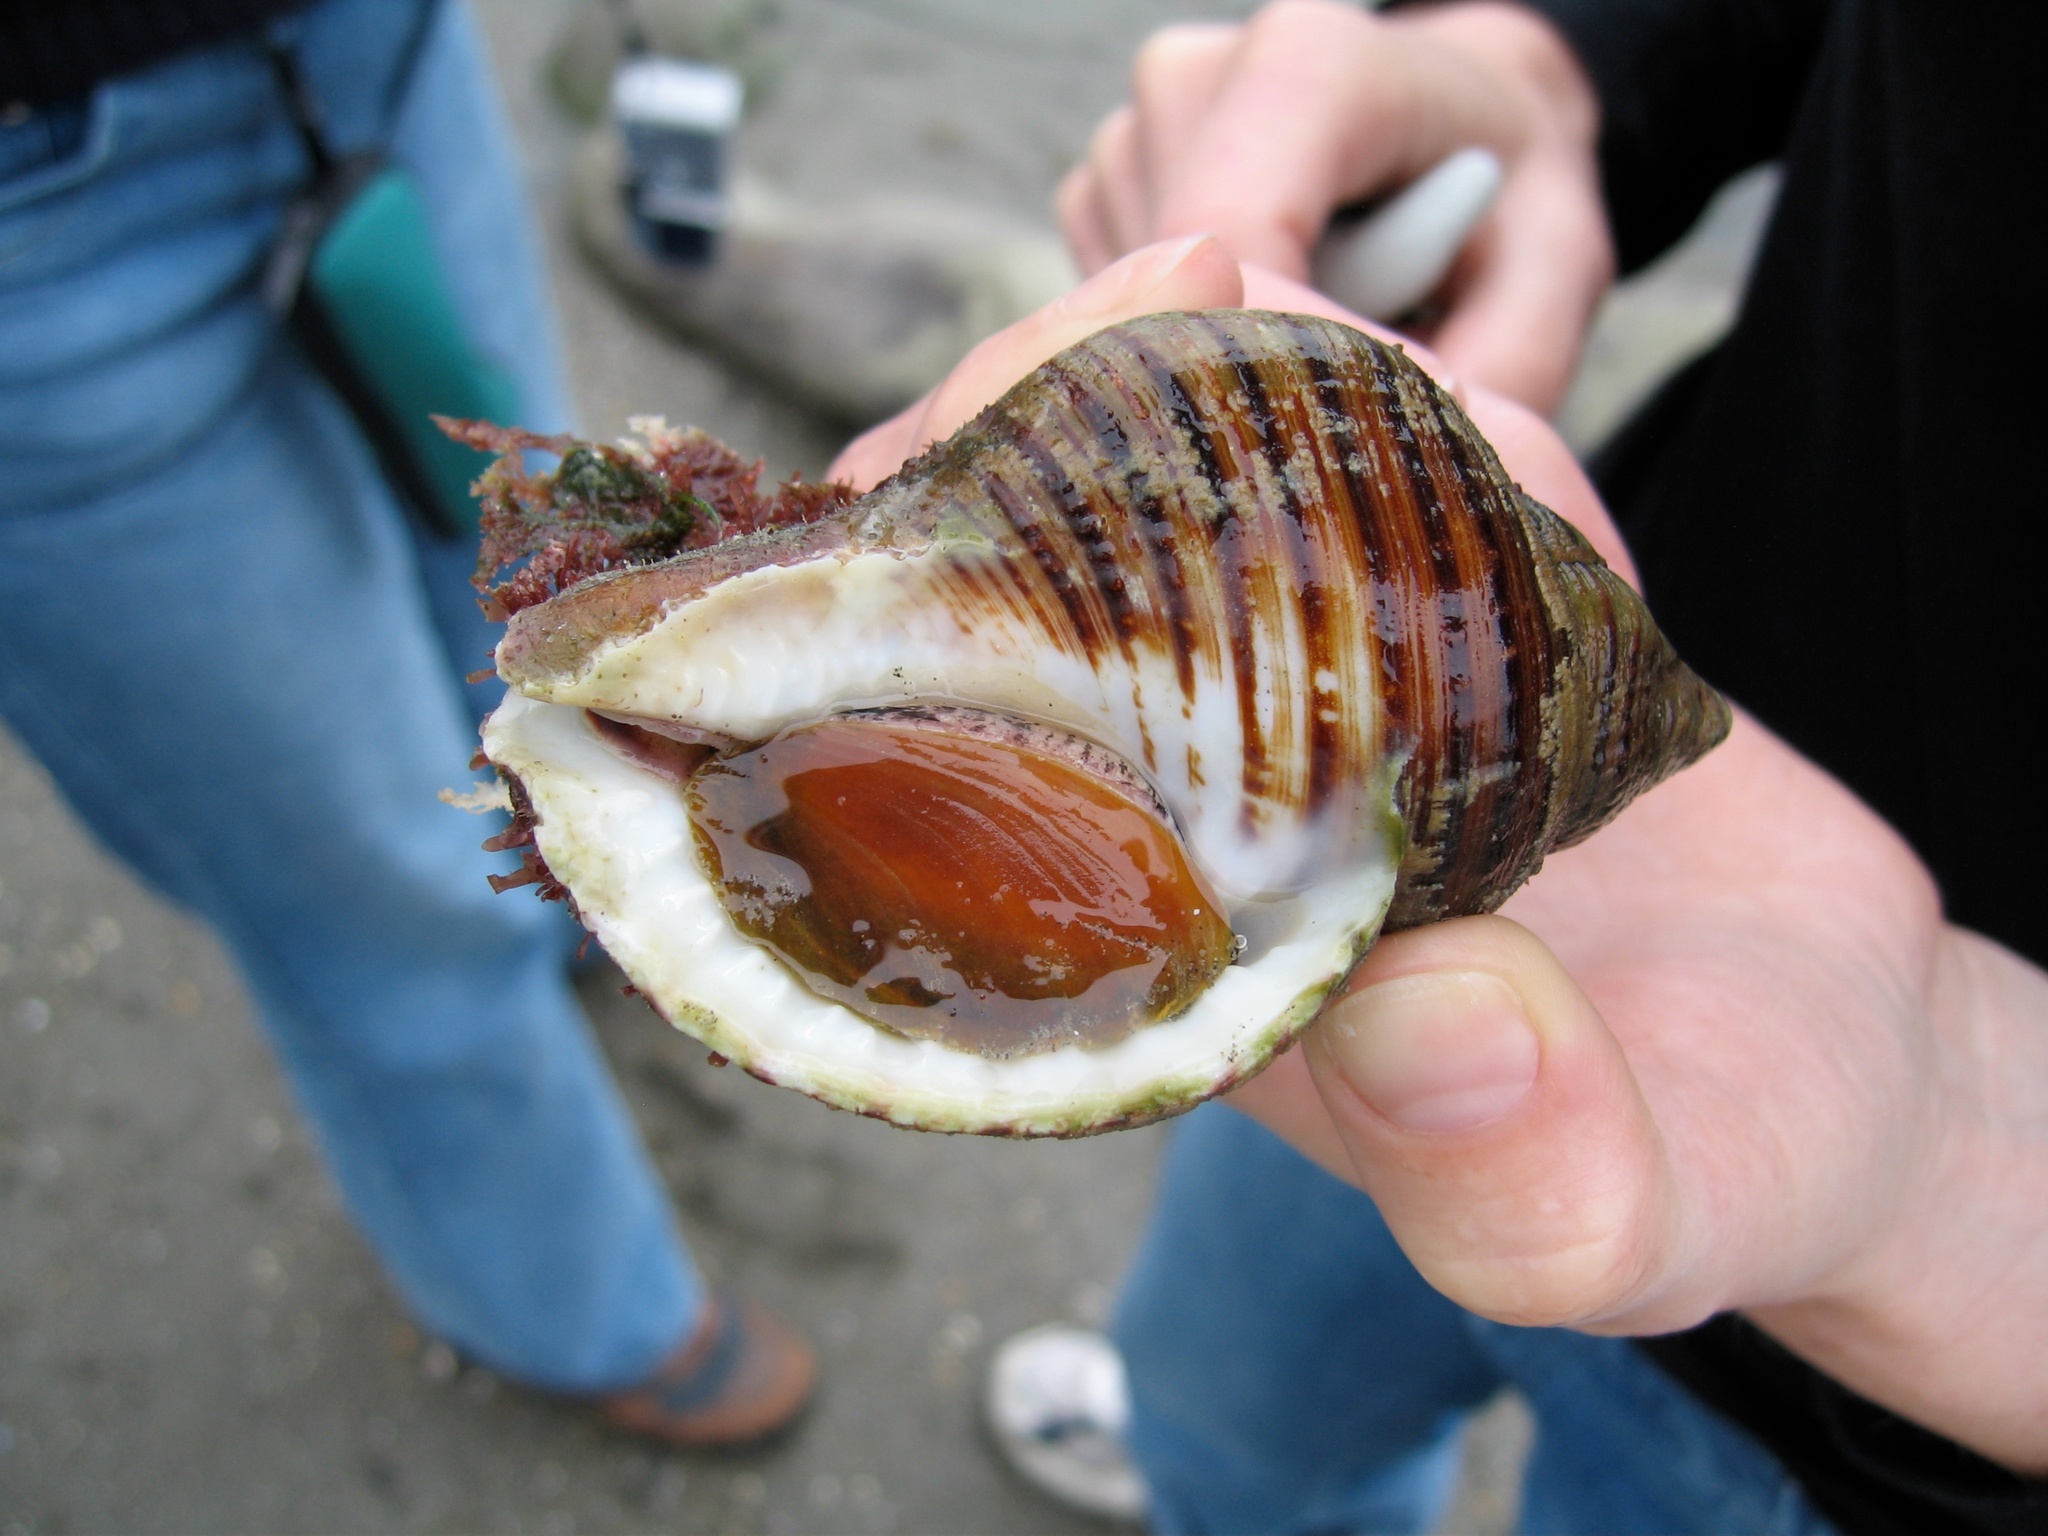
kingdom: Animalia
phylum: Mollusca
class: Gastropoda
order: Littorinimorpha
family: Cymatiidae
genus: Argobuccinum
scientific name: Argobuccinum pustulosum
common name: Pustular triton
